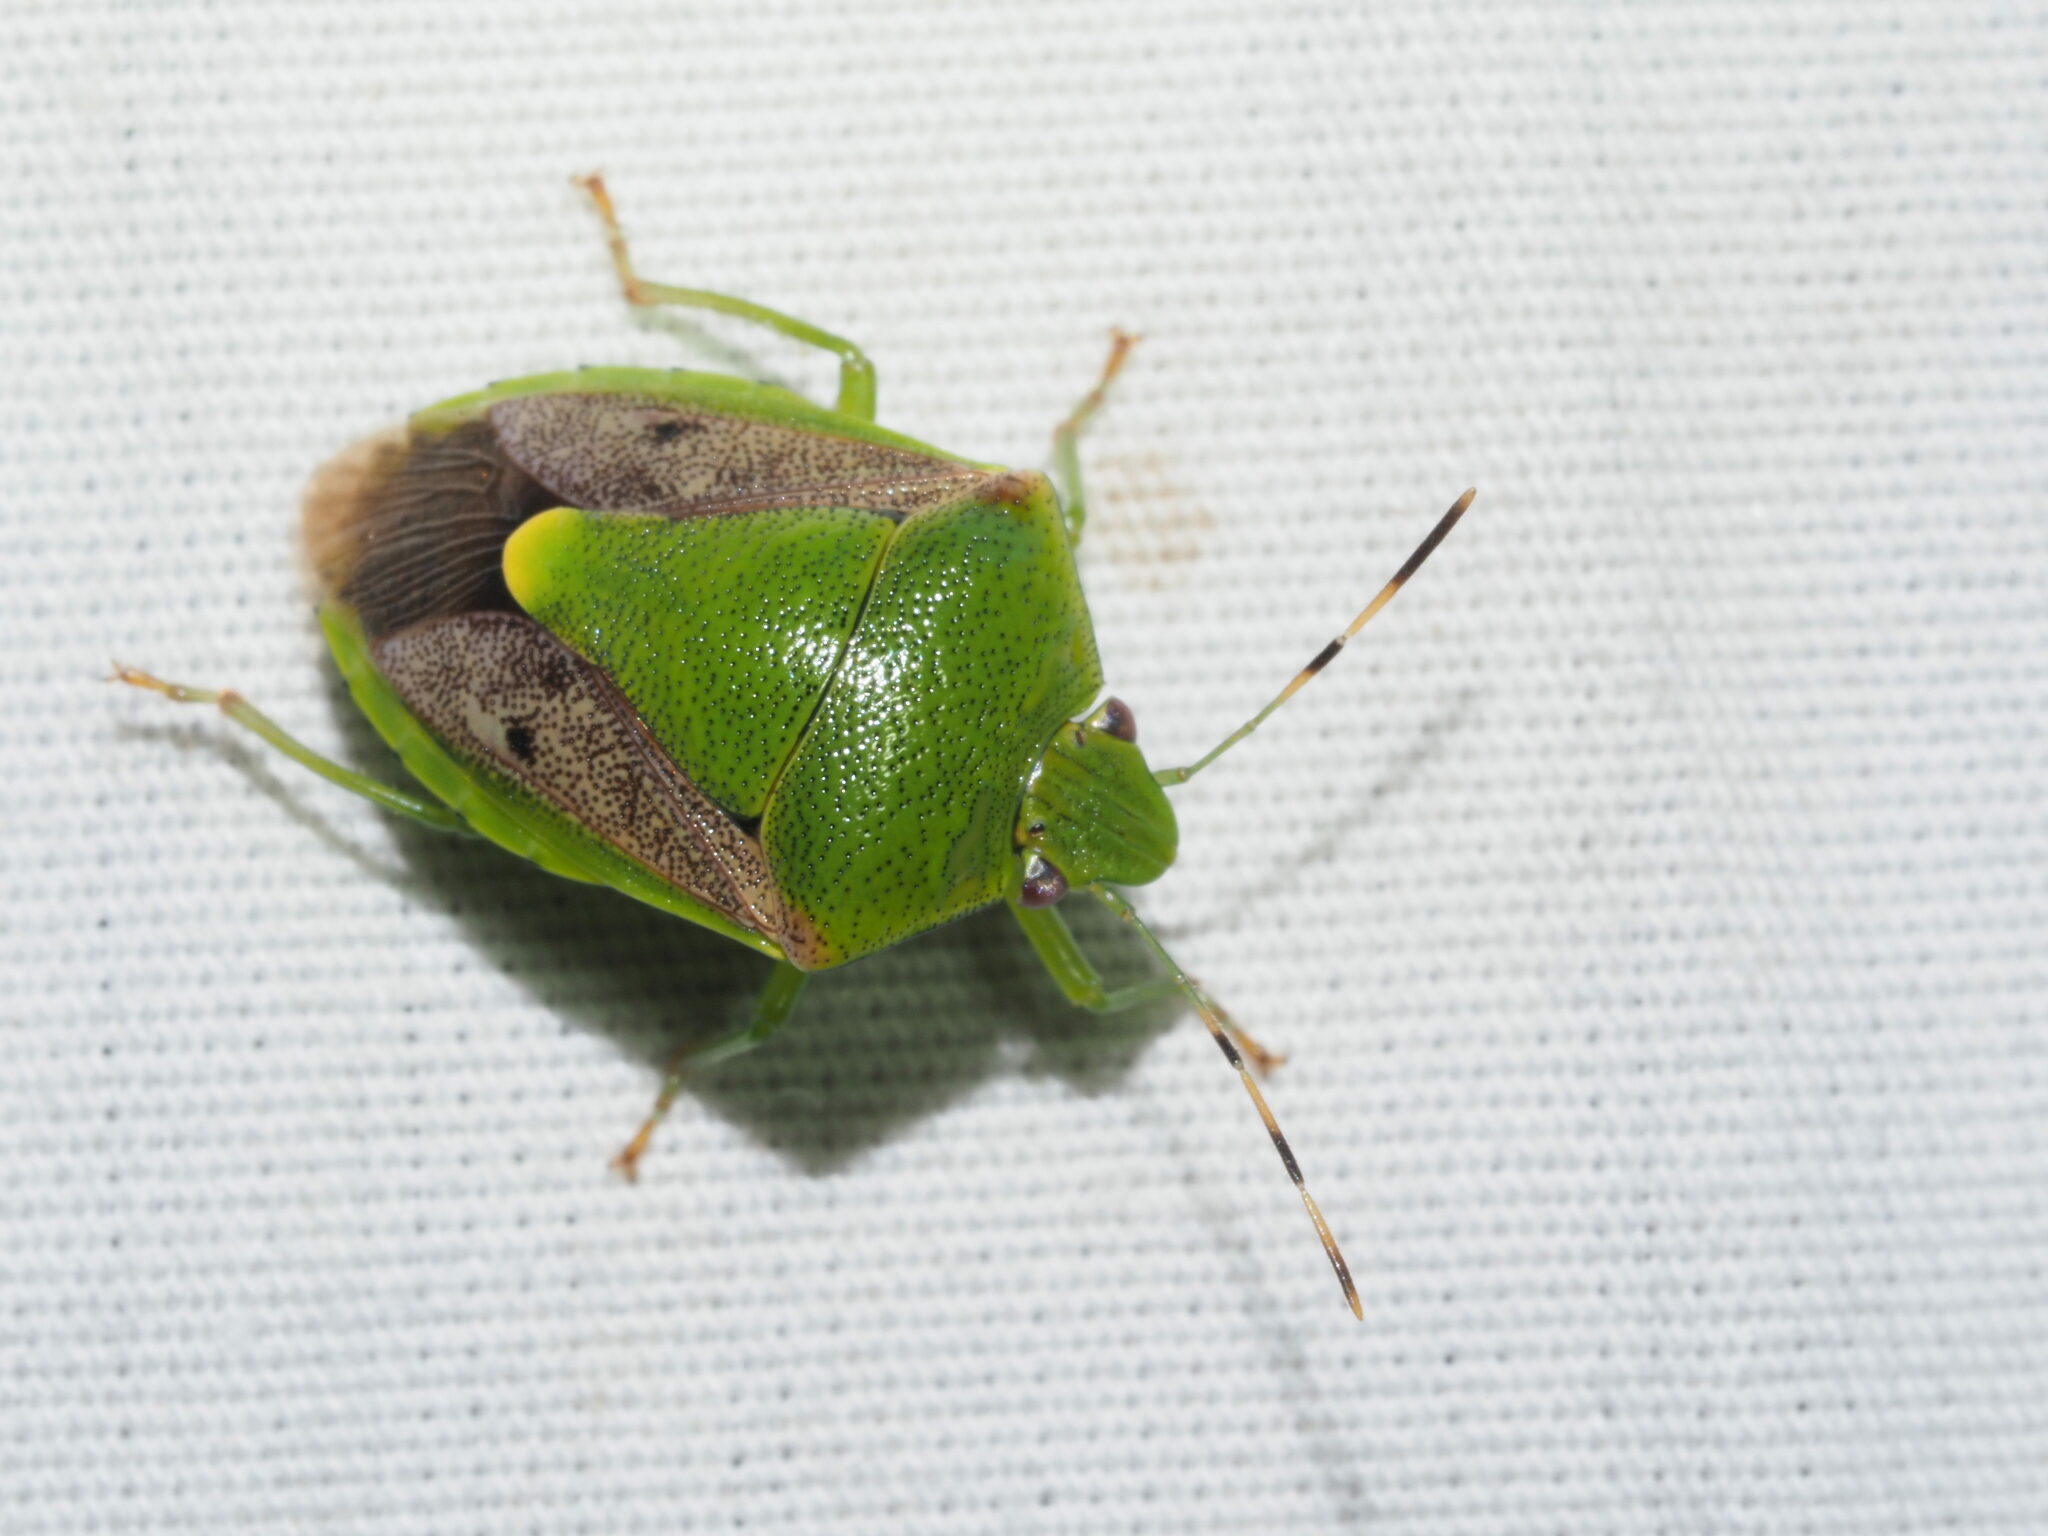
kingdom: Animalia
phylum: Arthropoda
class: Insecta
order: Hemiptera
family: Pentatomidae
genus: Plautia
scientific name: Plautia stali
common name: Stink bug
